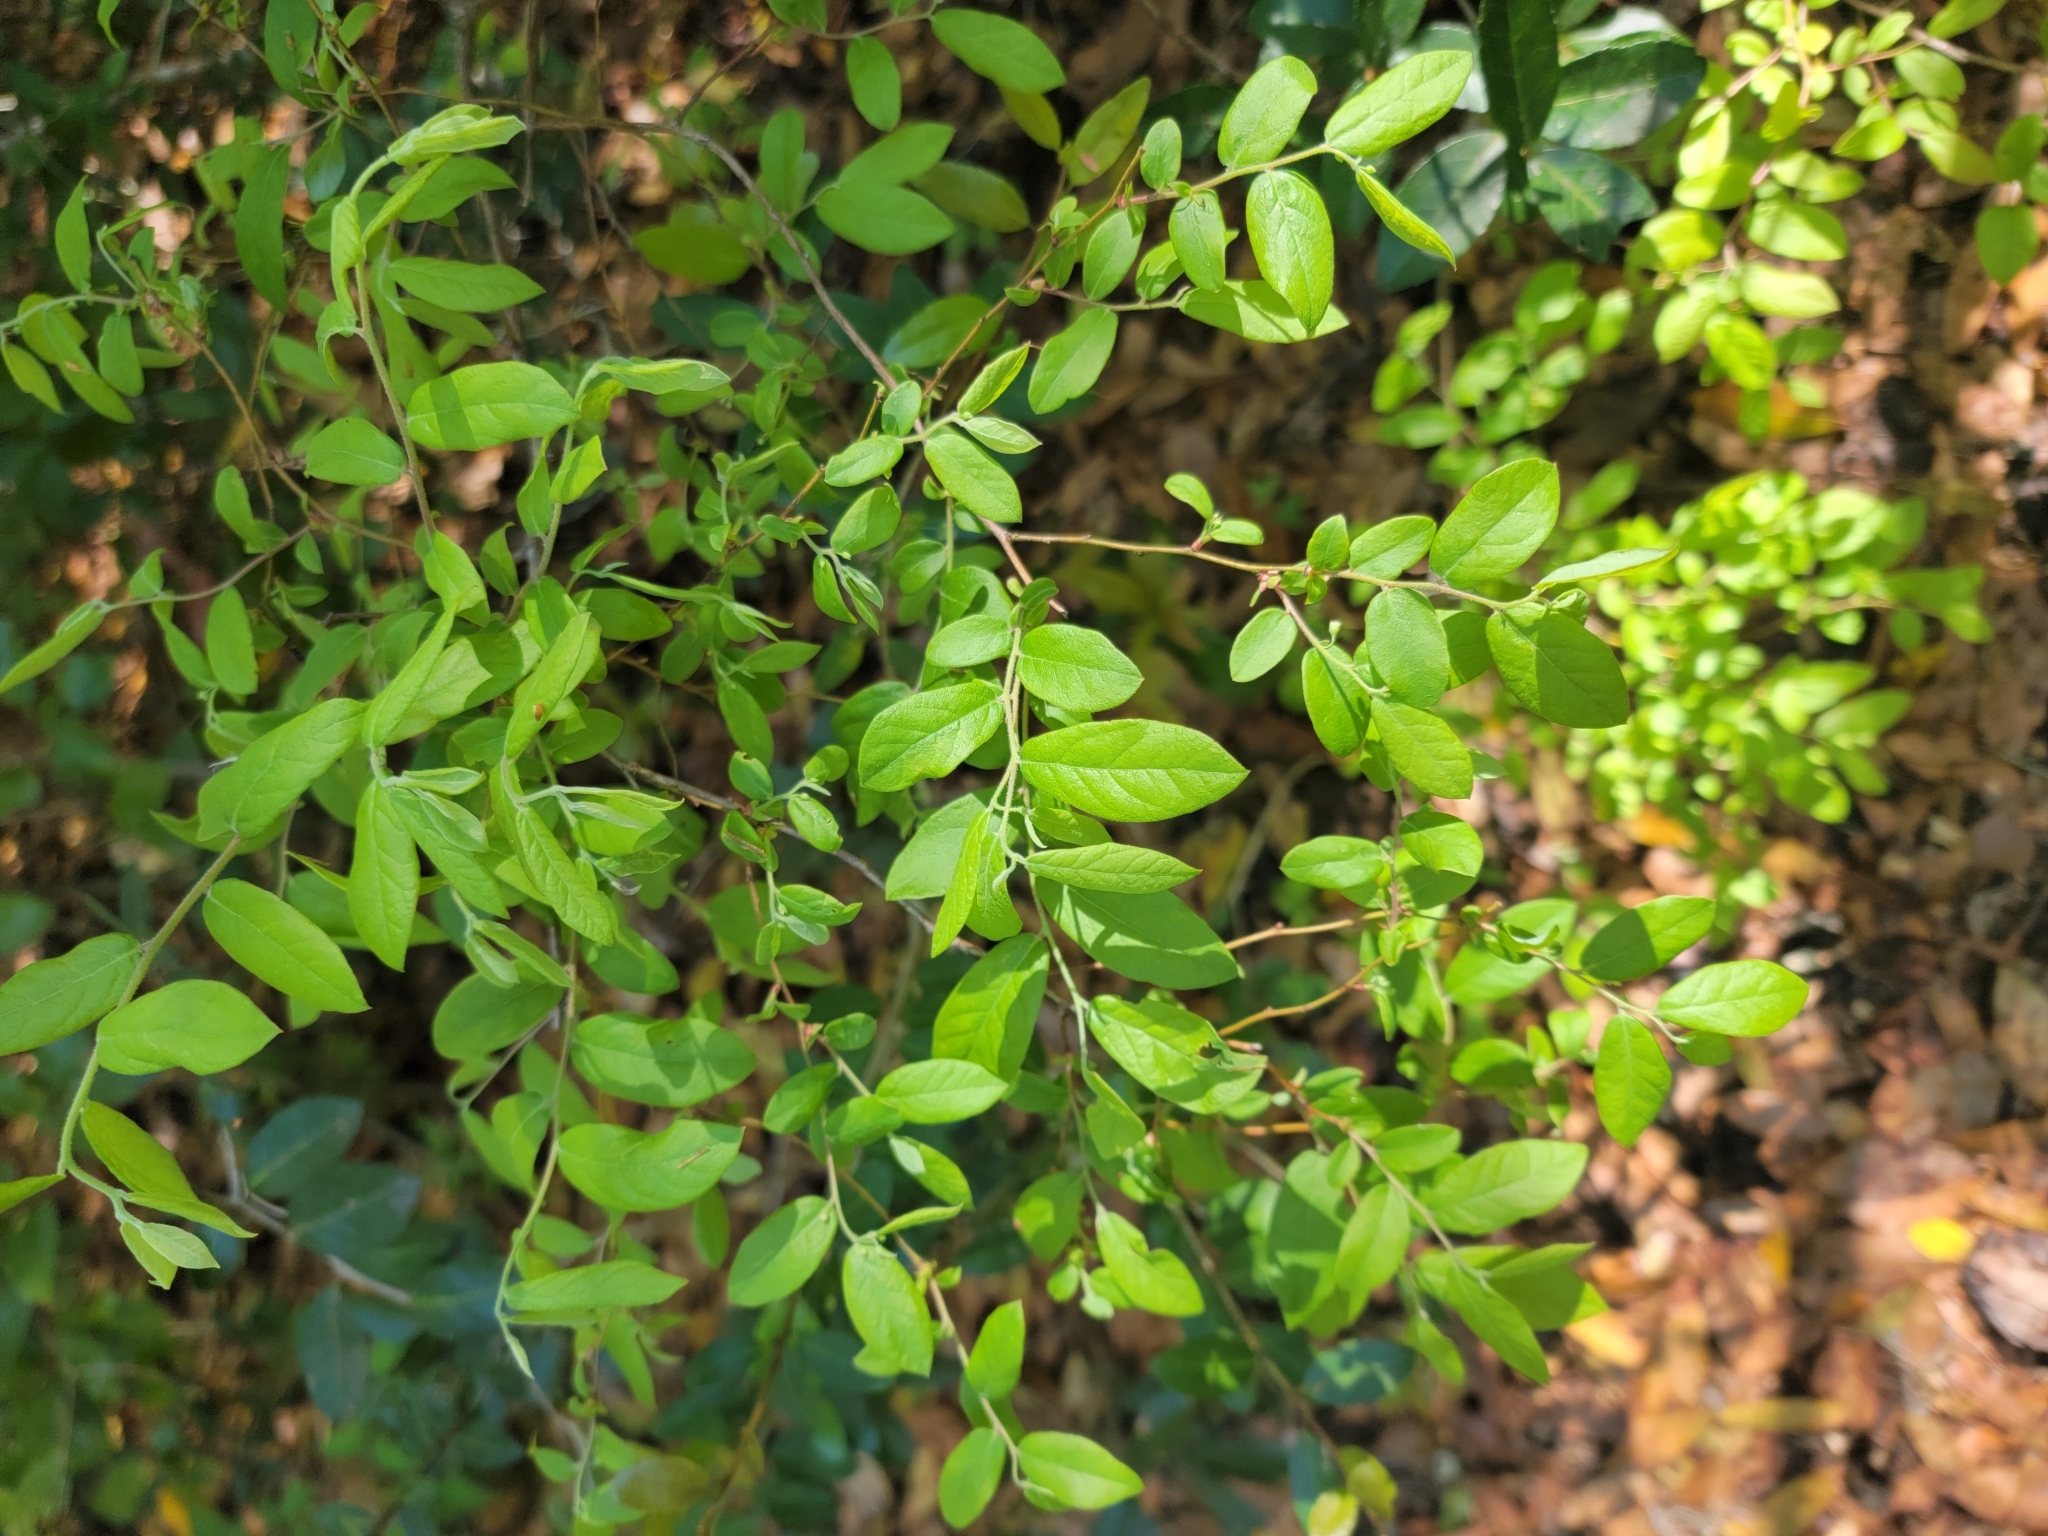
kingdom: Plantae
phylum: Tracheophyta
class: Magnoliopsida
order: Ericales
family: Ericaceae
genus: Vaccinium
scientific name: Vaccinium stamineum
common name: Deerberry
